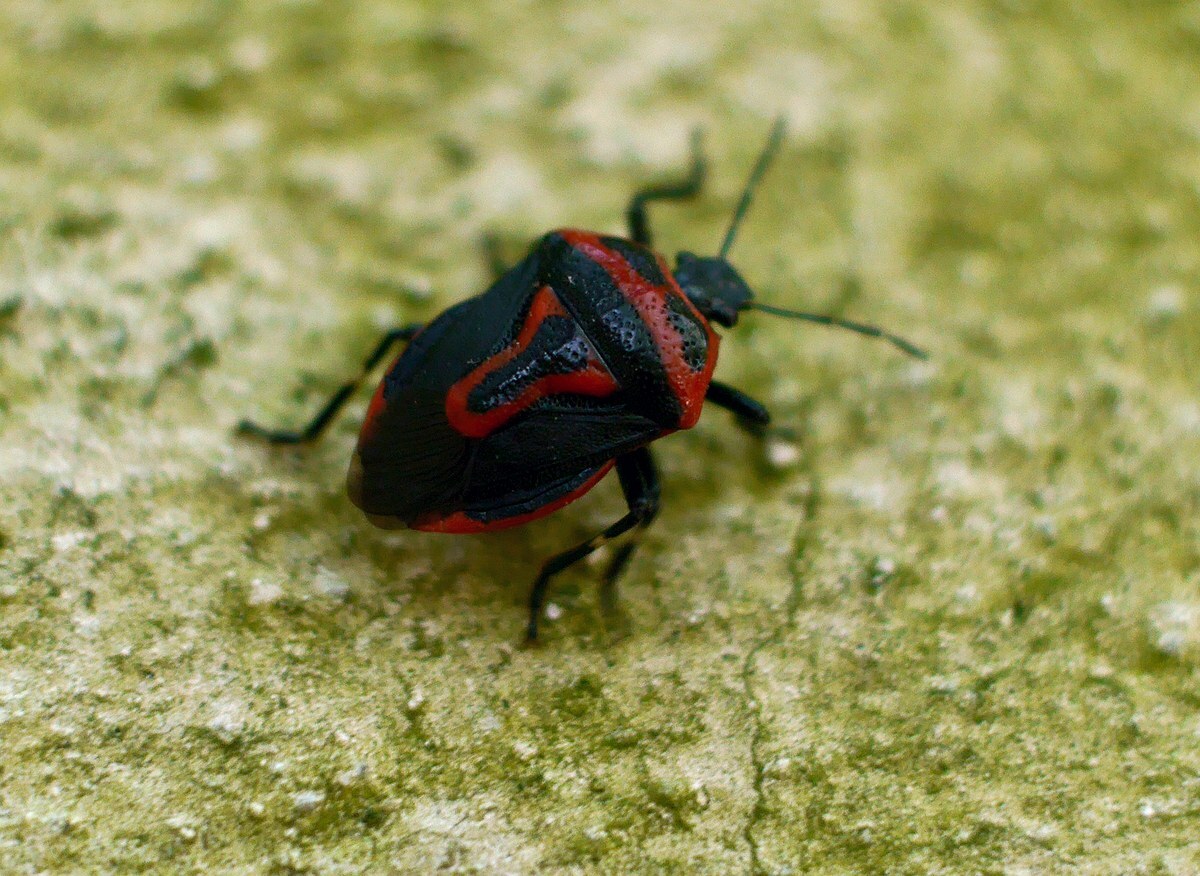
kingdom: Animalia
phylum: Arthropoda
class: Insecta
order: Hemiptera
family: Pentatomidae
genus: Perillus
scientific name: Perillus bioculatus
